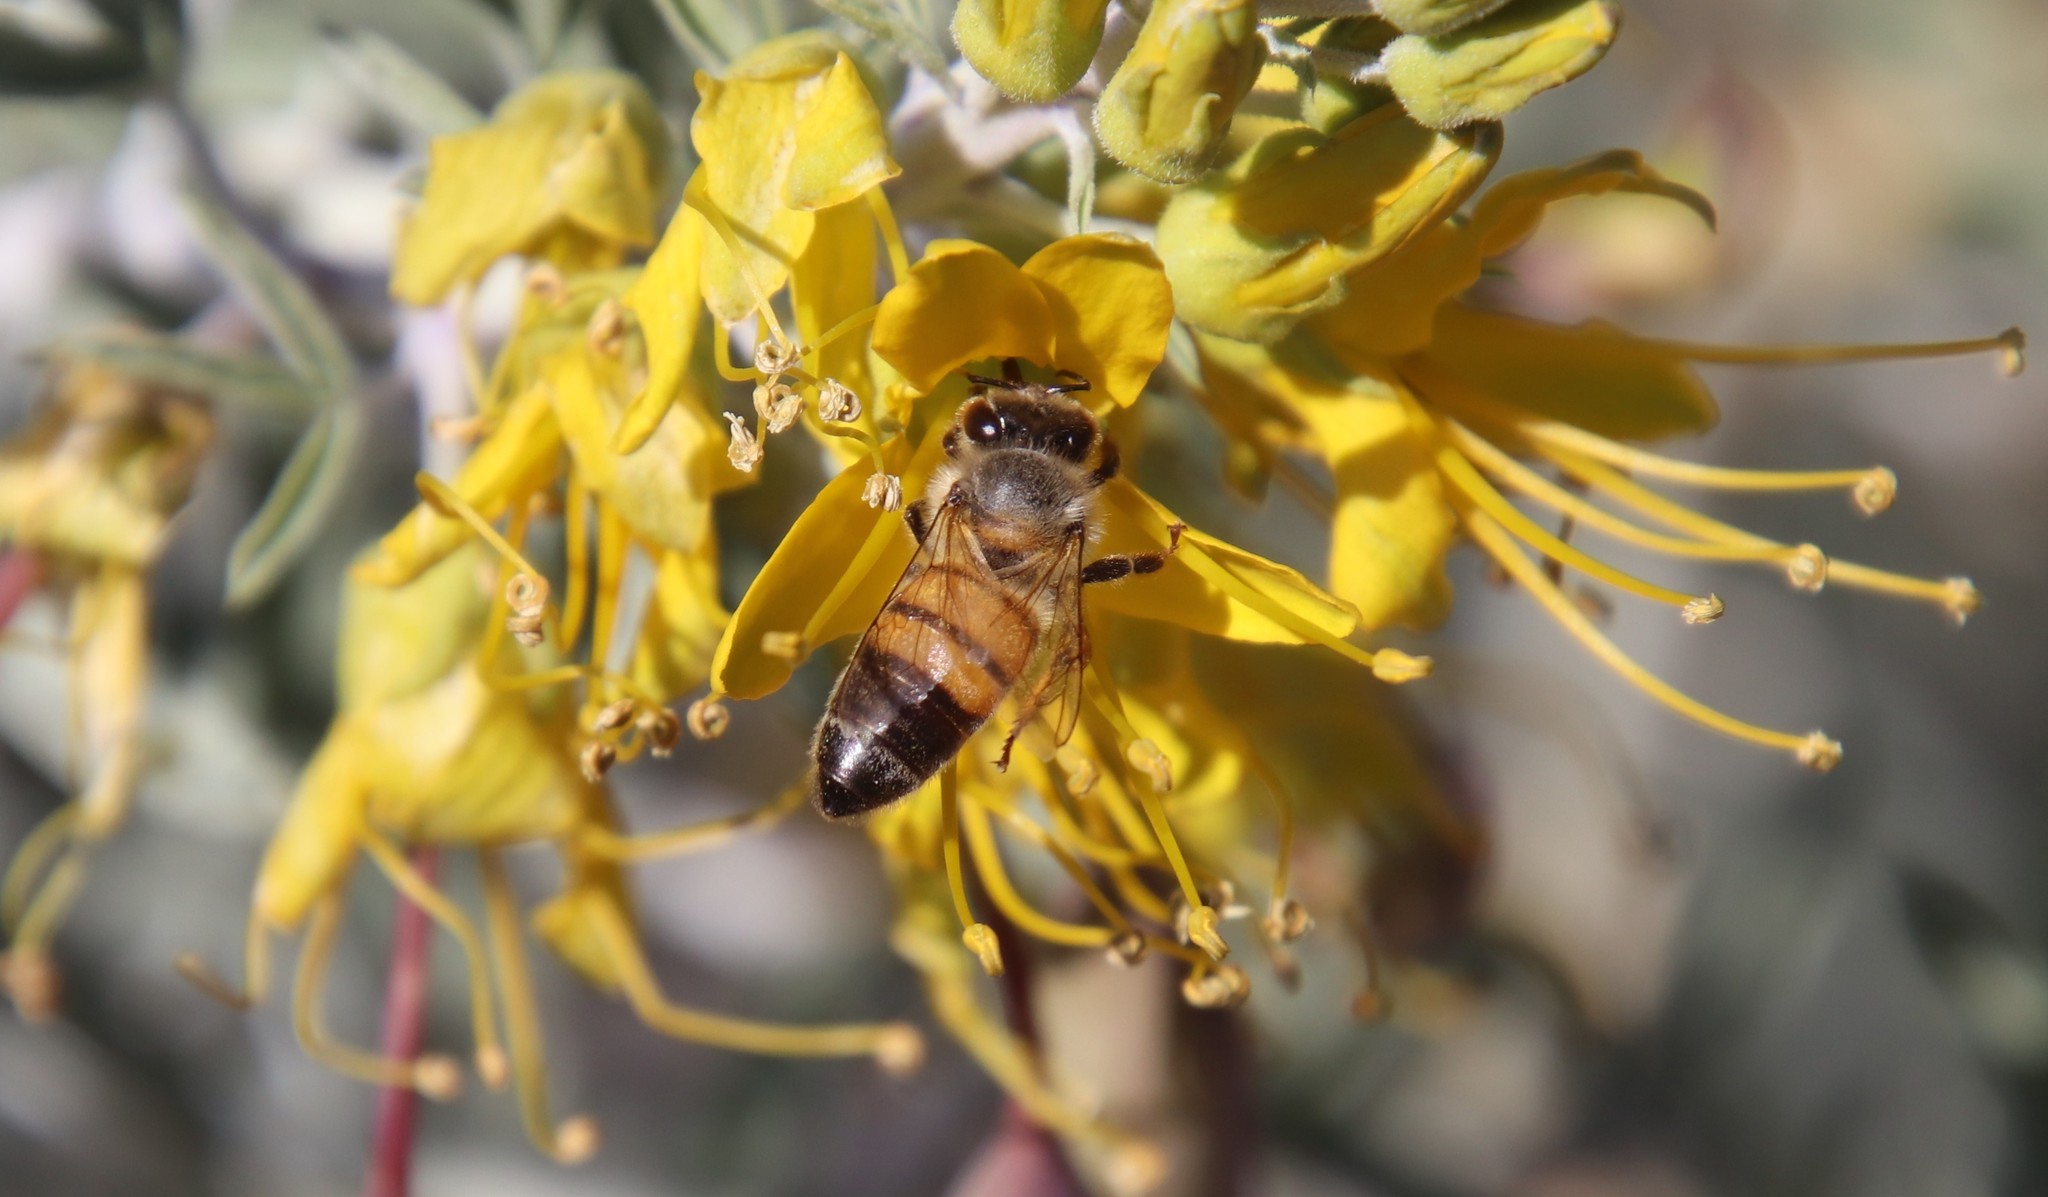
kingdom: Animalia
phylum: Arthropoda
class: Insecta
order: Hymenoptera
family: Apidae
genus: Apis
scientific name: Apis mellifera
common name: Honey bee
